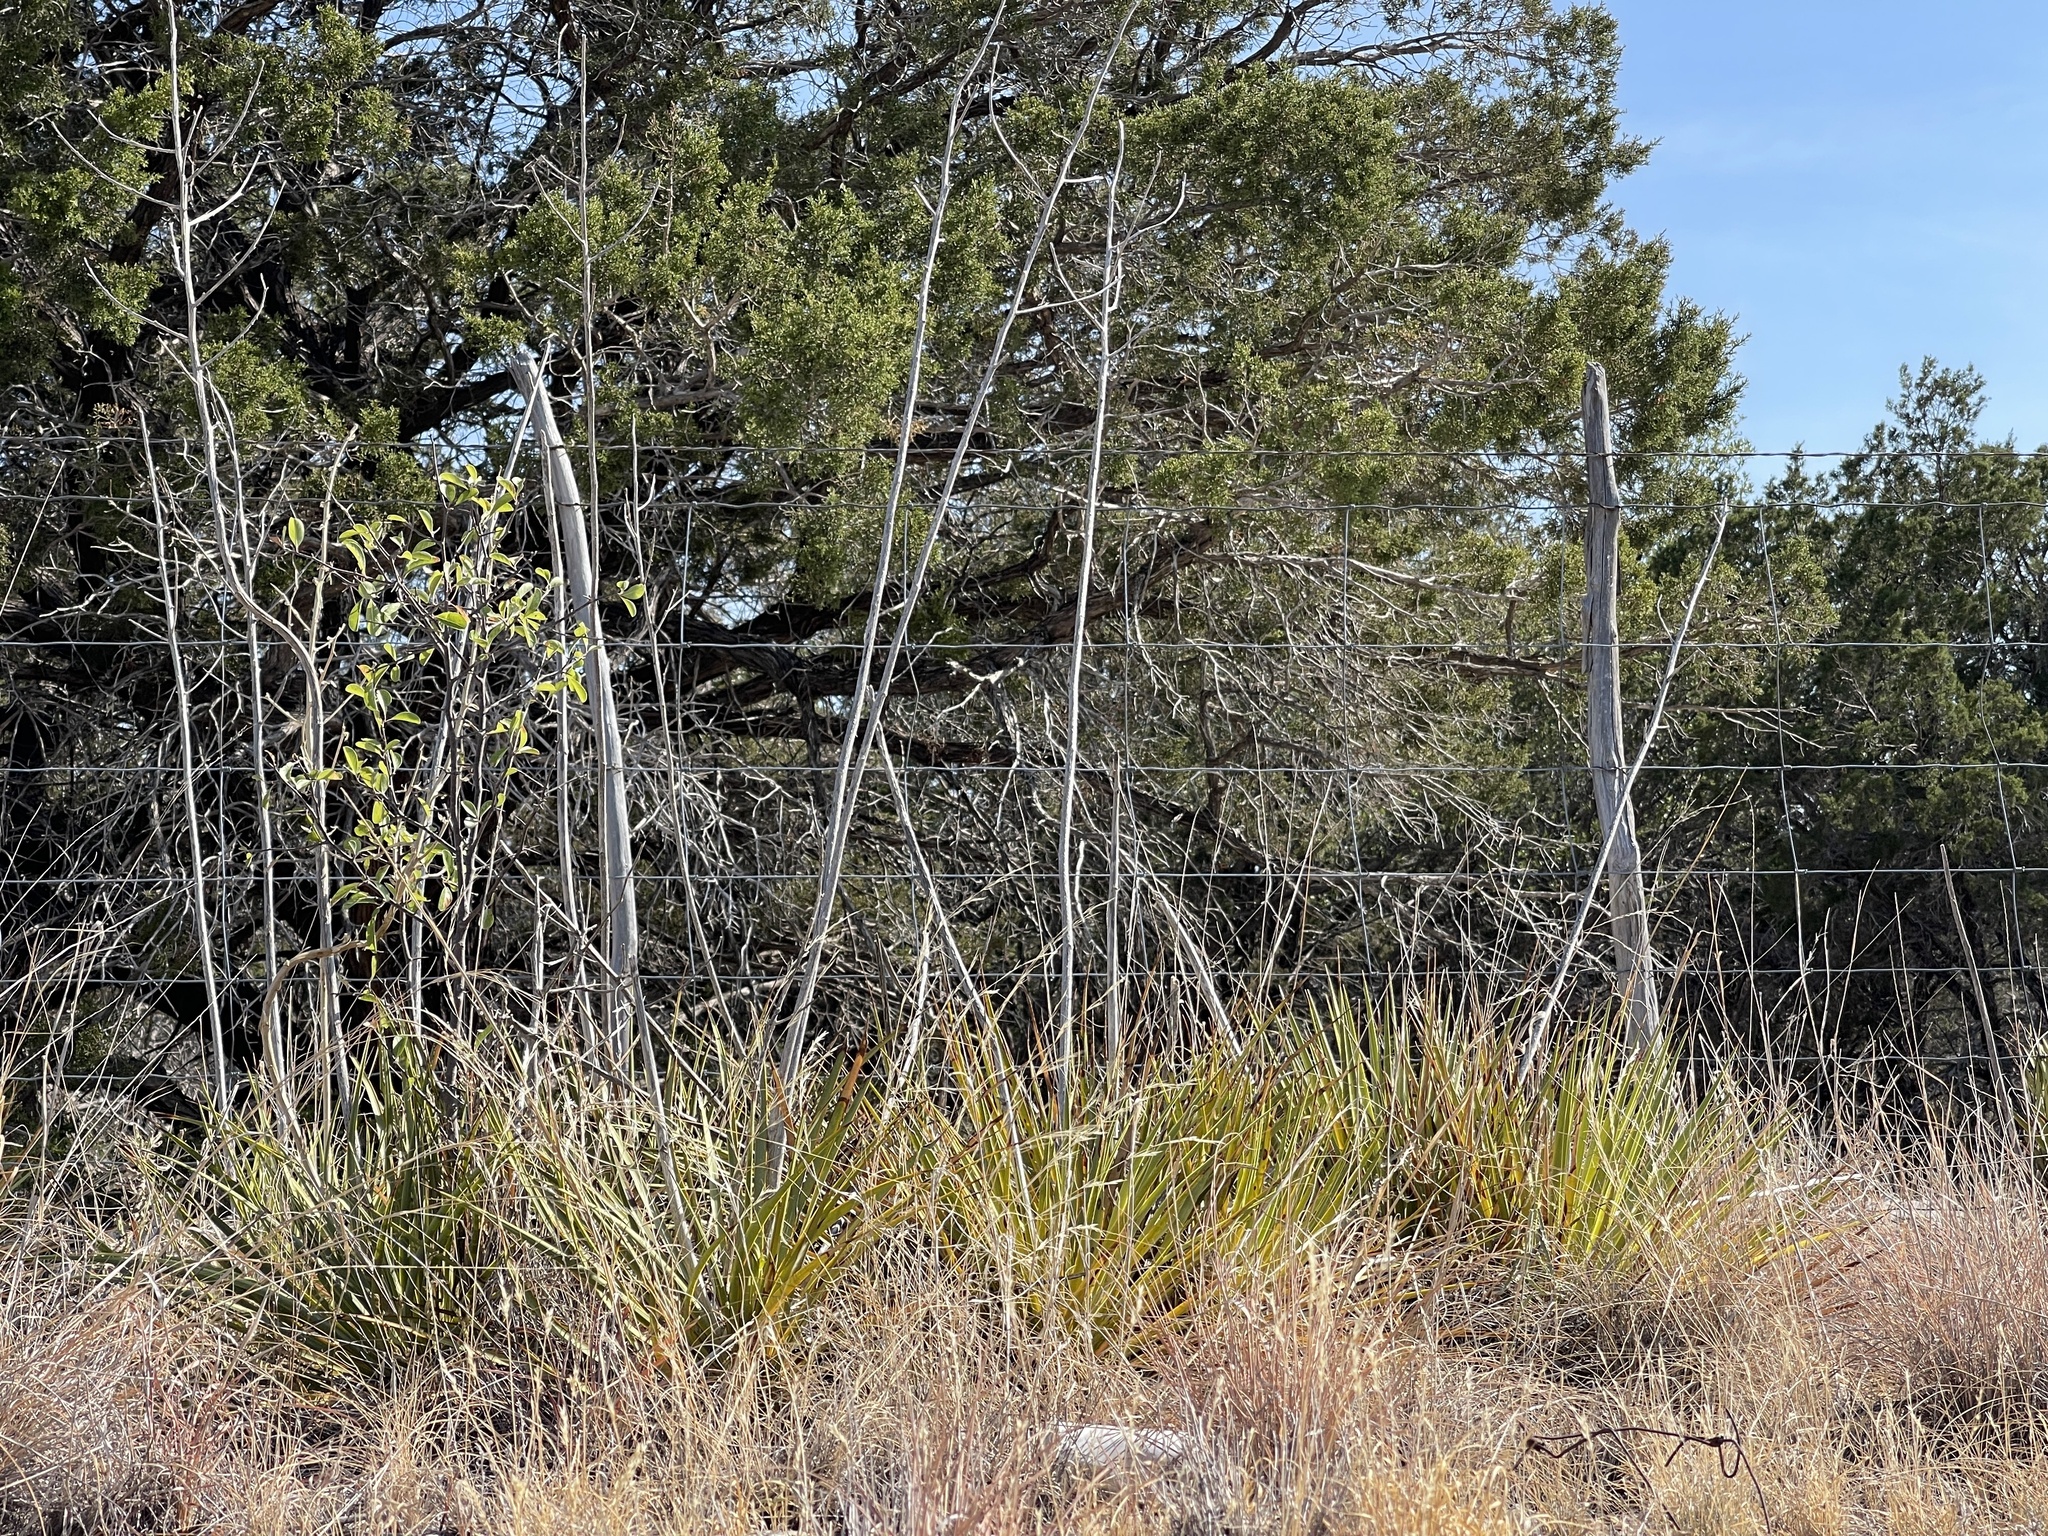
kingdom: Plantae
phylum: Tracheophyta
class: Liliopsida
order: Asparagales
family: Asparagaceae
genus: Yucca
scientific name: Yucca reverchonii
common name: San angelo yucca
